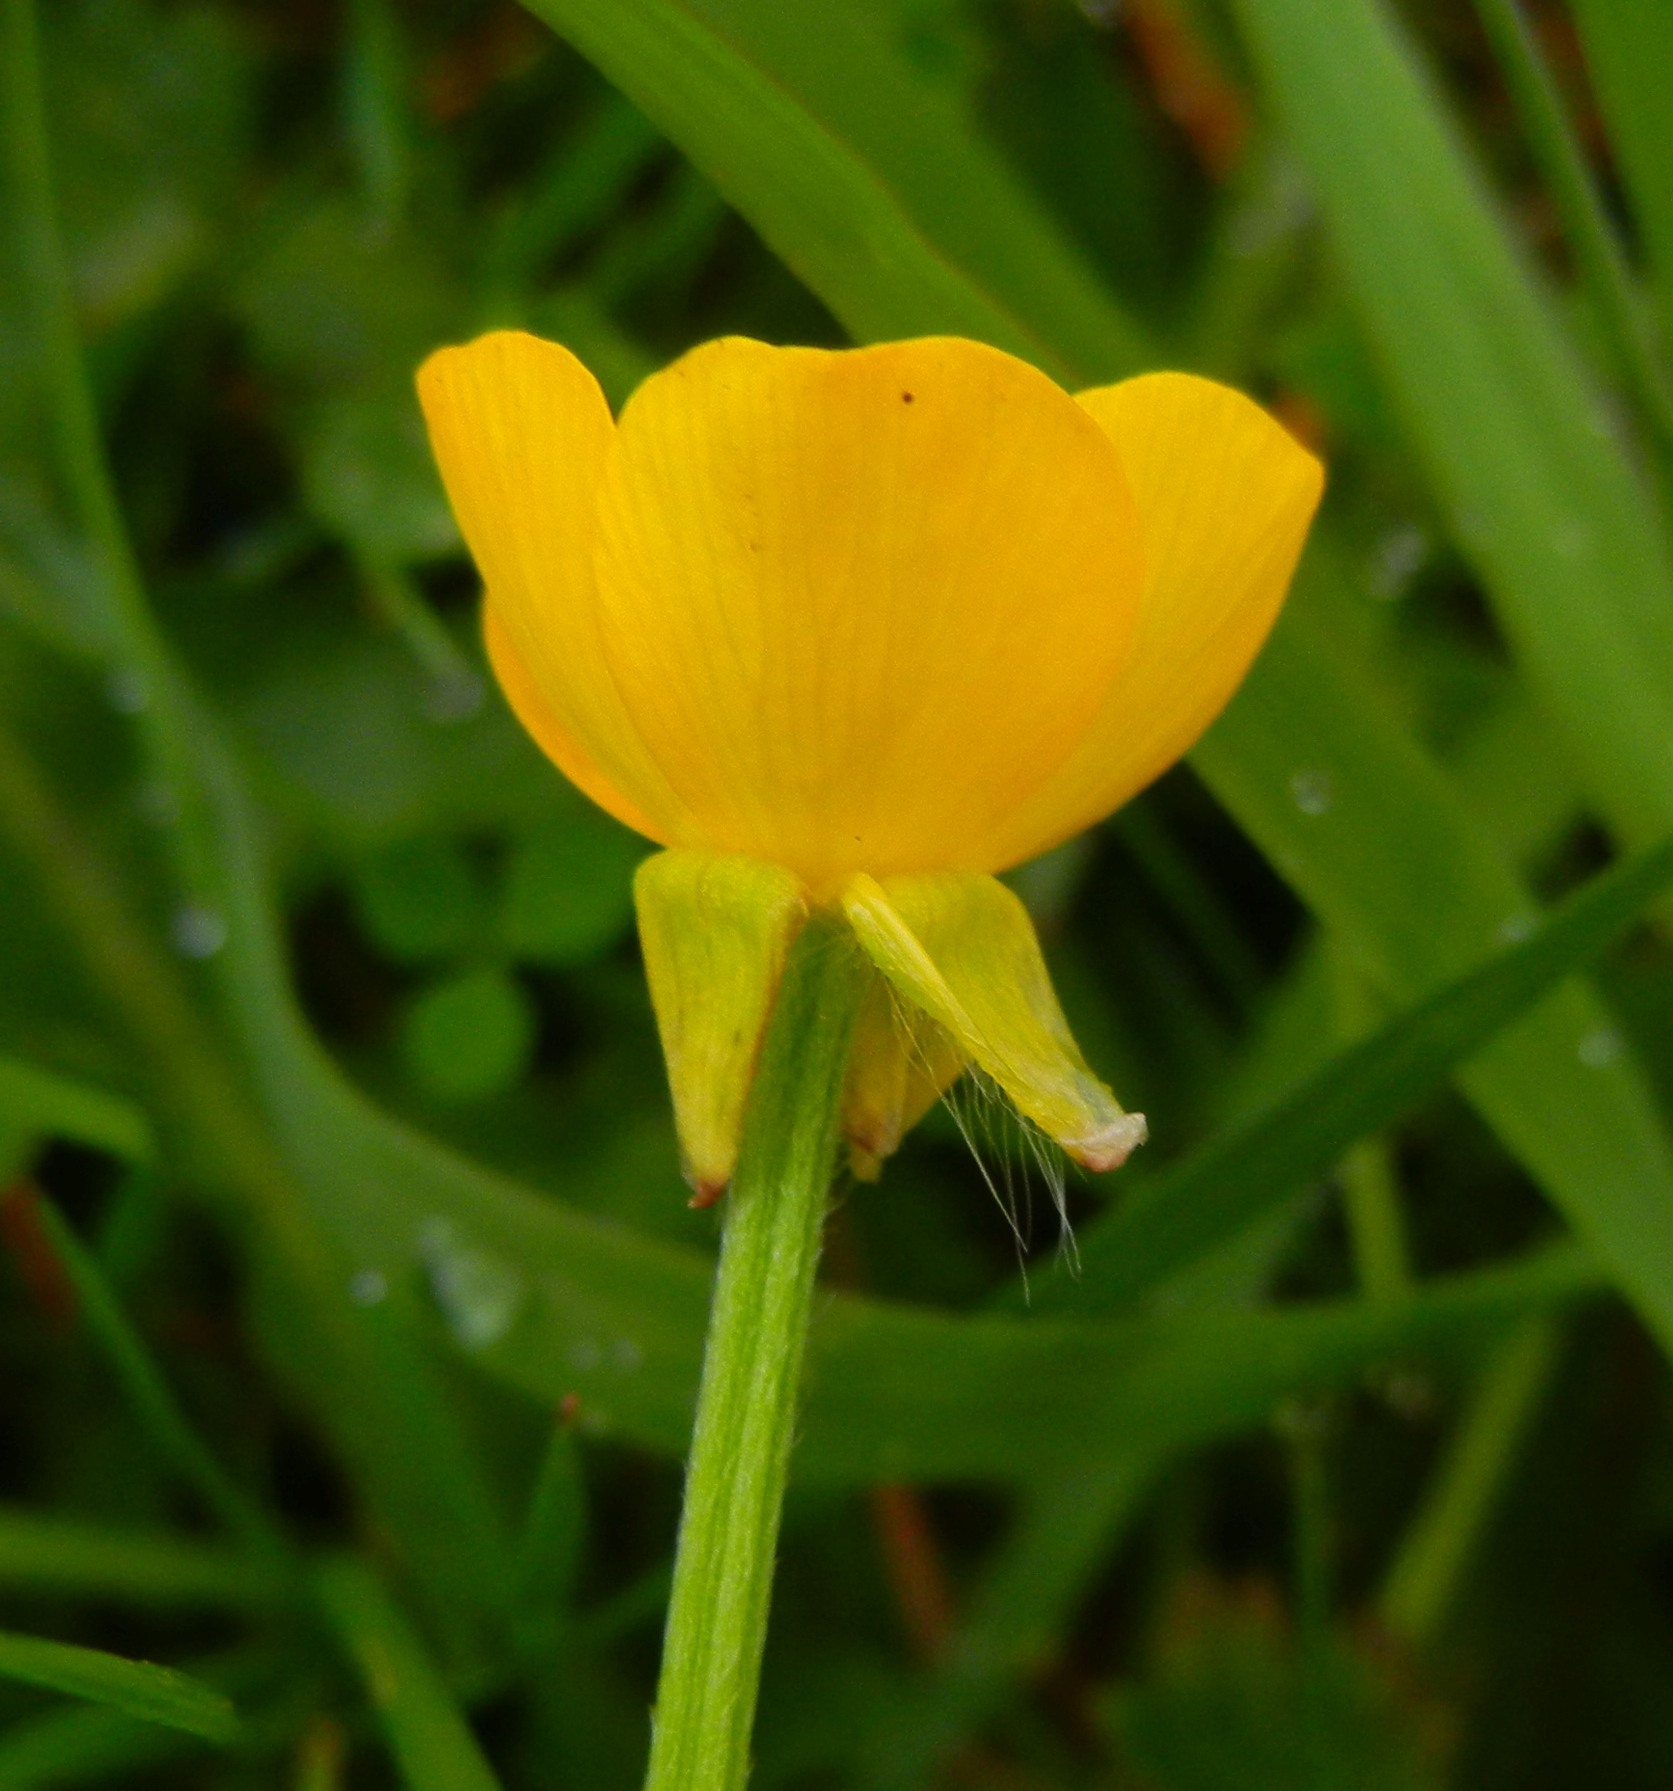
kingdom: Plantae
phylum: Tracheophyta
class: Magnoliopsida
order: Ranunculales
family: Ranunculaceae
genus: Ranunculus
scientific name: Ranunculus bulbosus
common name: Bulbous buttercup
